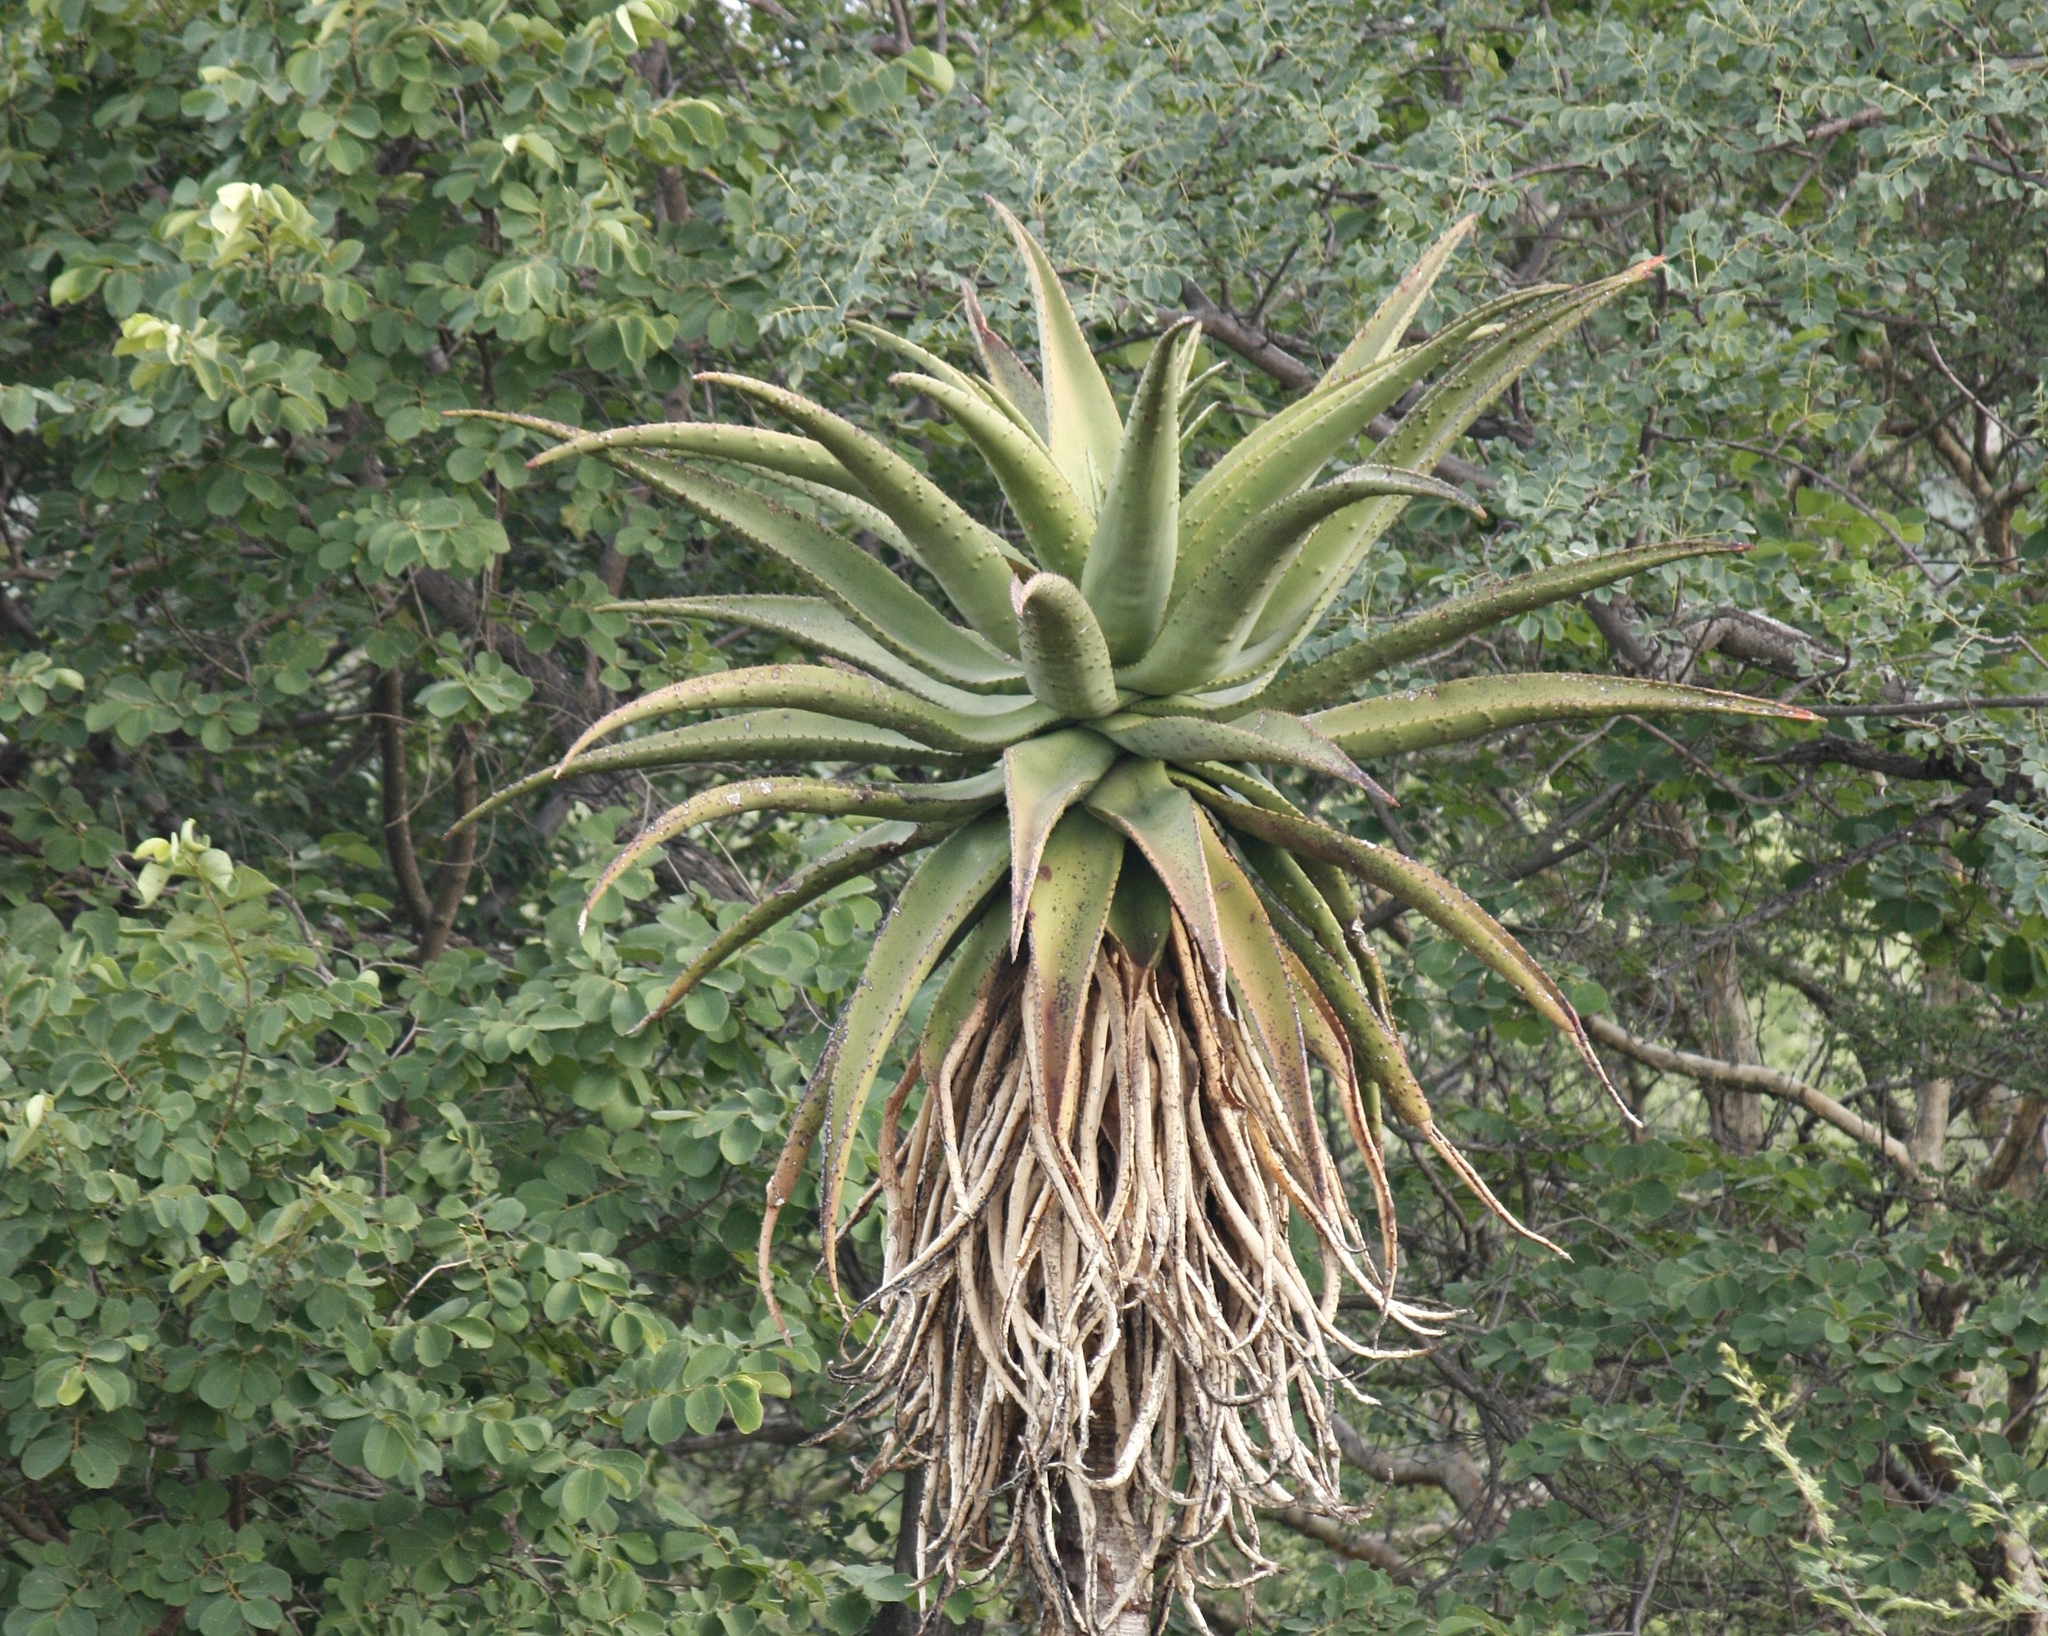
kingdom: Plantae
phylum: Tracheophyta
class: Liliopsida
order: Asparagales
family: Asphodelaceae
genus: Aloe
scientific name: Aloe marlothii
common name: Flat-flowered aloe
